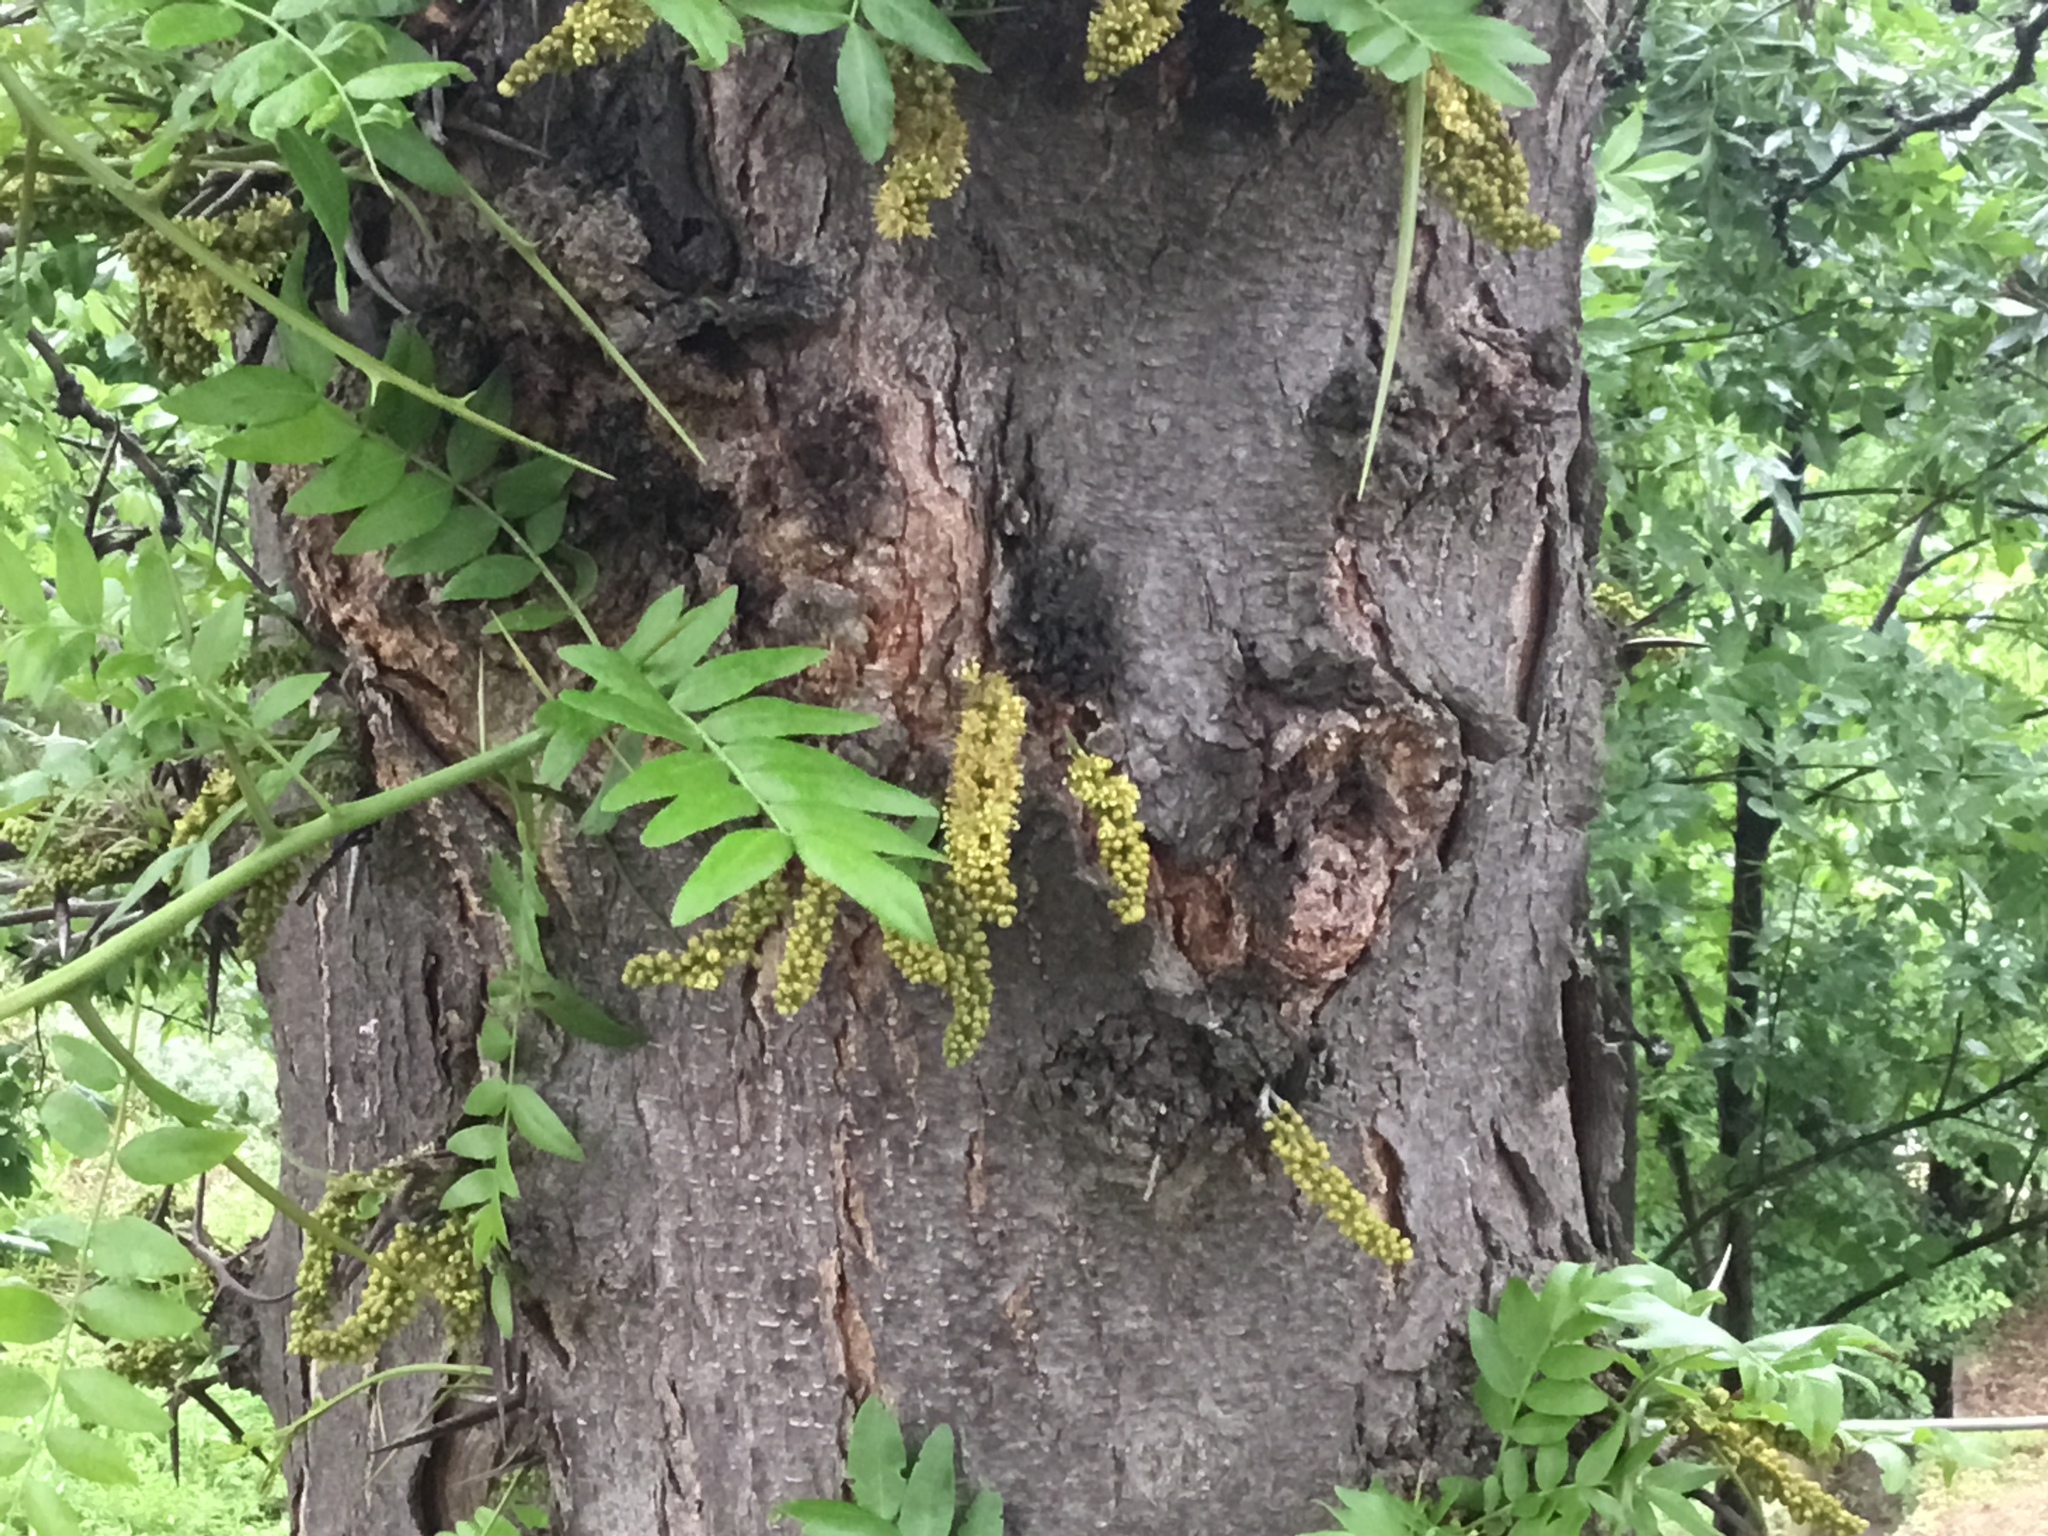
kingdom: Plantae
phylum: Tracheophyta
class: Magnoliopsida
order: Fabales
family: Fabaceae
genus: Gleditsia
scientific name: Gleditsia triacanthos
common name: Common honeylocust
